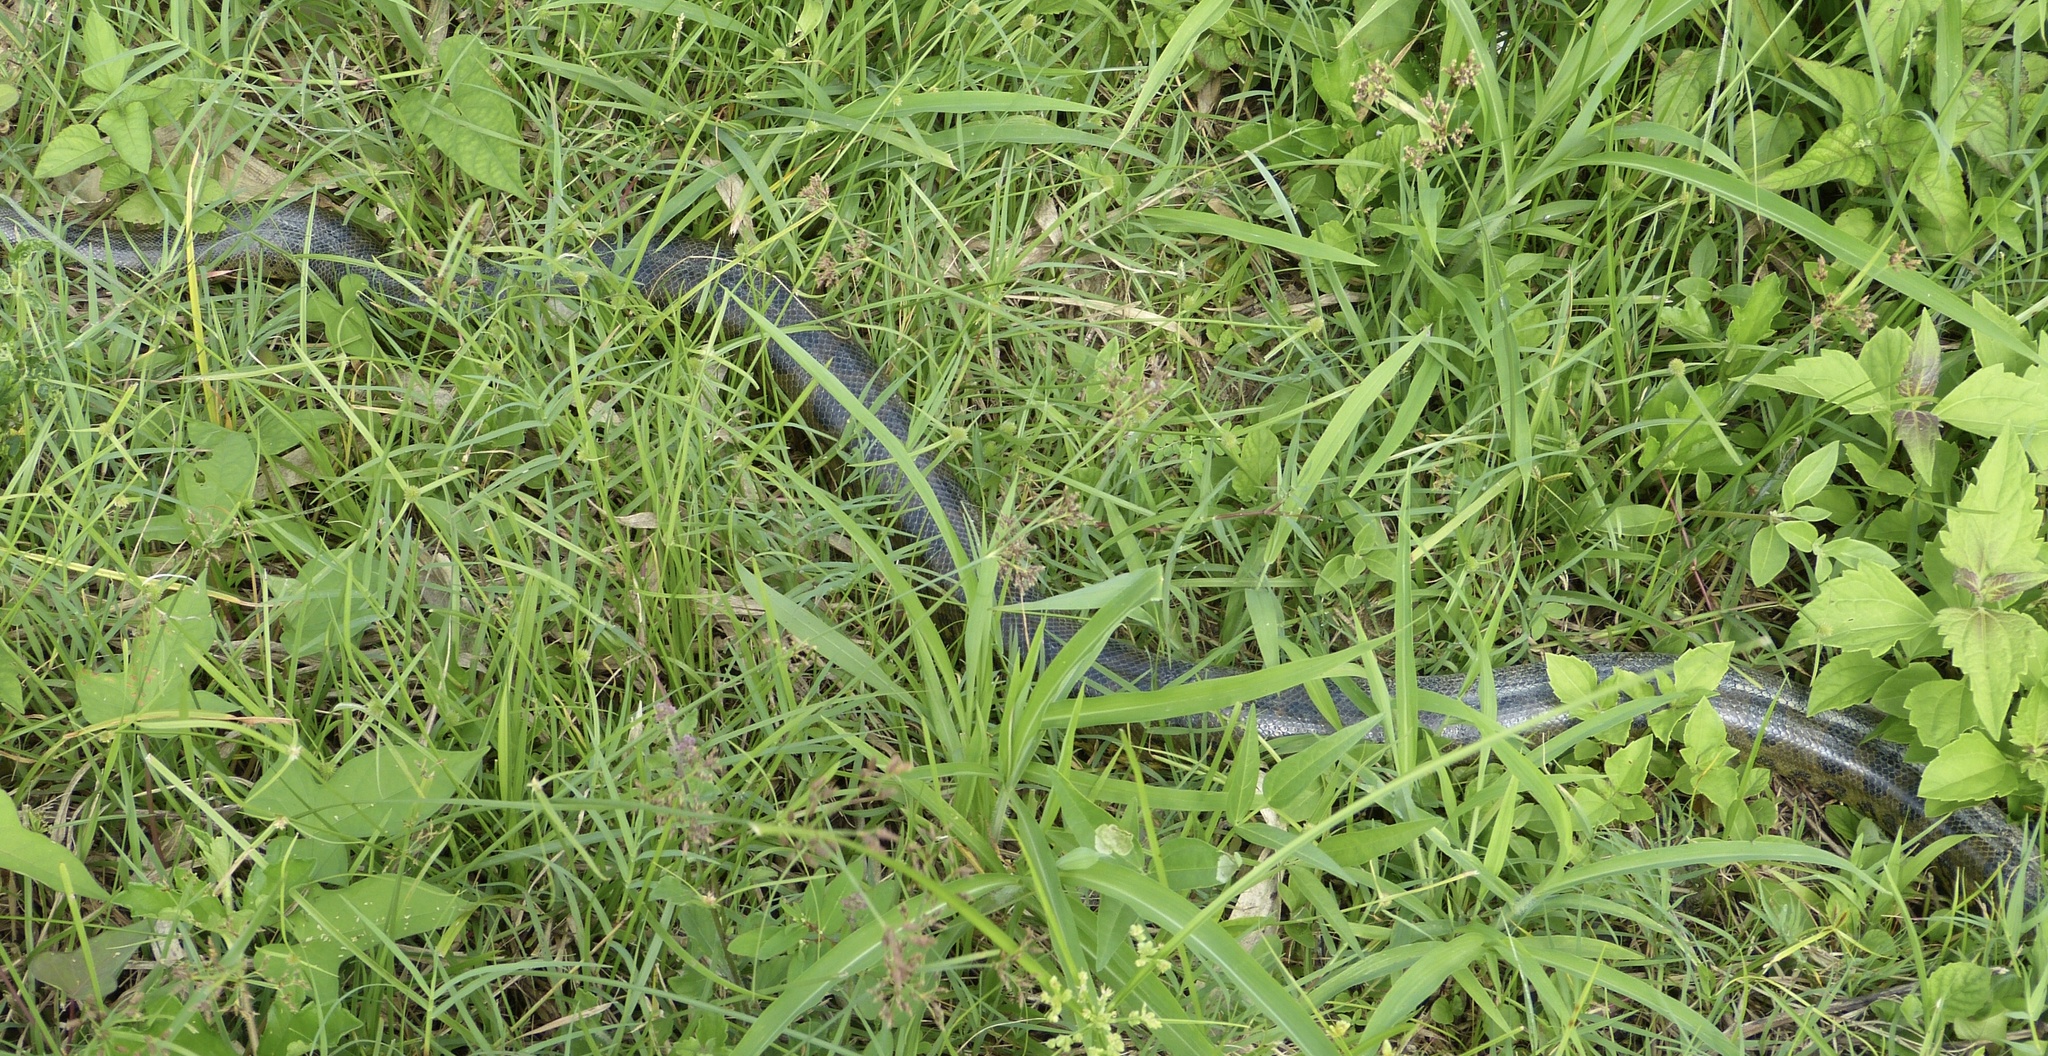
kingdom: Animalia
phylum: Chordata
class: Squamata
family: Boidae
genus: Eunectes
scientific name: Eunectes murinus
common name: Anaconda
